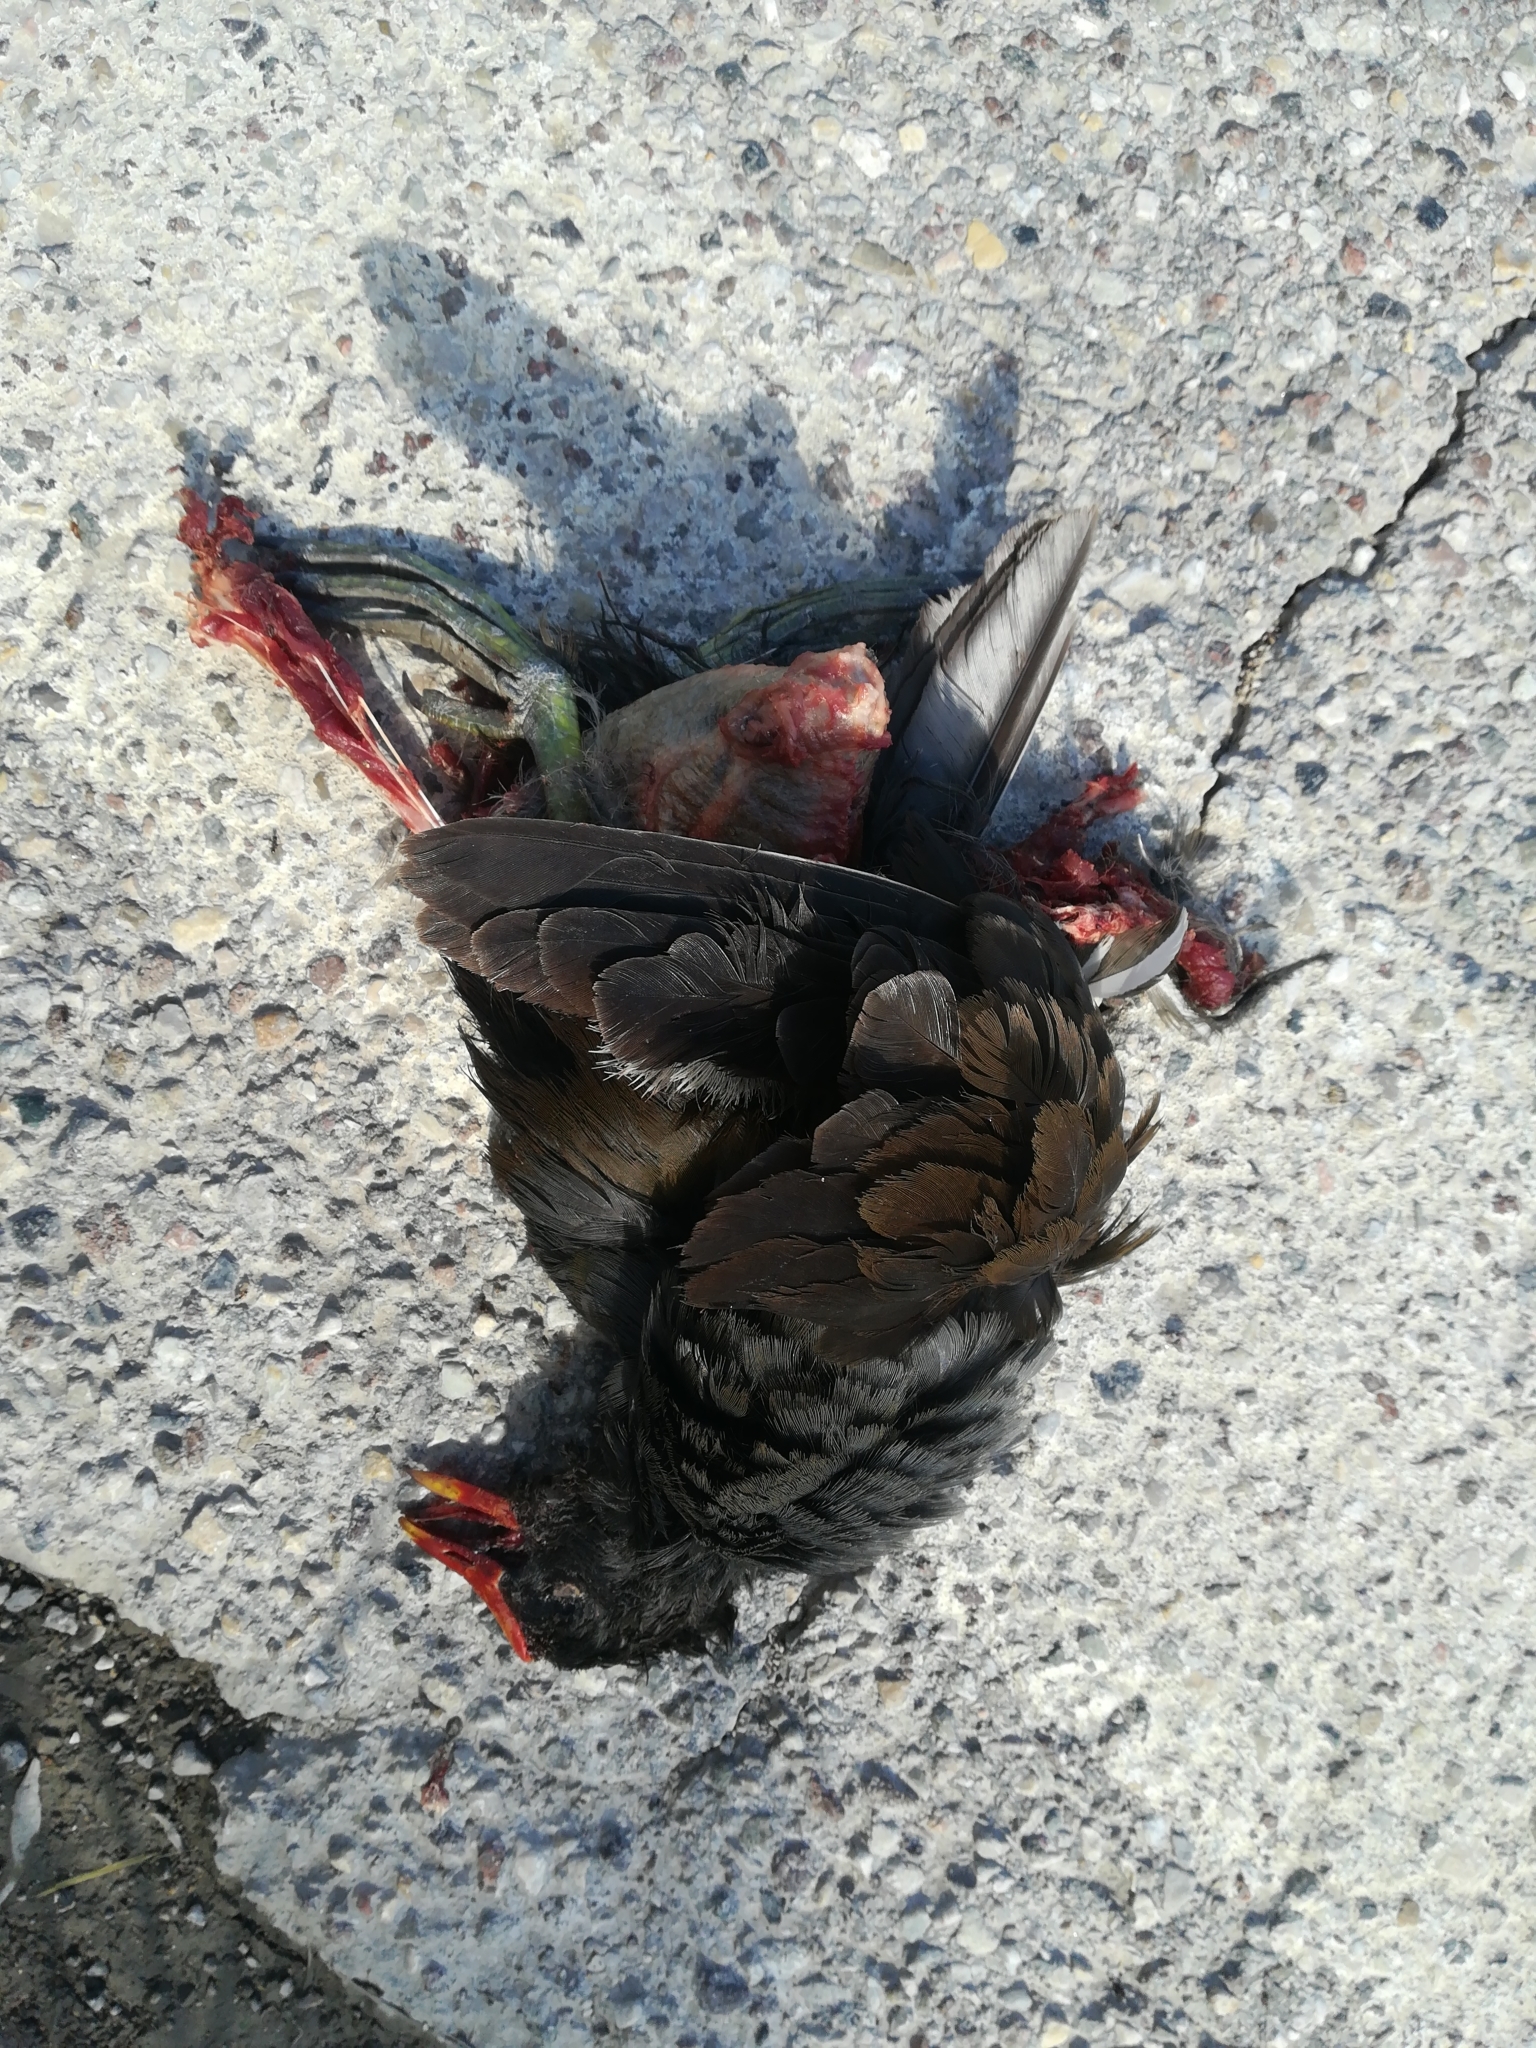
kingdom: Animalia
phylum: Chordata
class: Aves
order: Gruiformes
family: Rallidae
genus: Gallinula
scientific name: Gallinula chloropus
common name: Common moorhen
